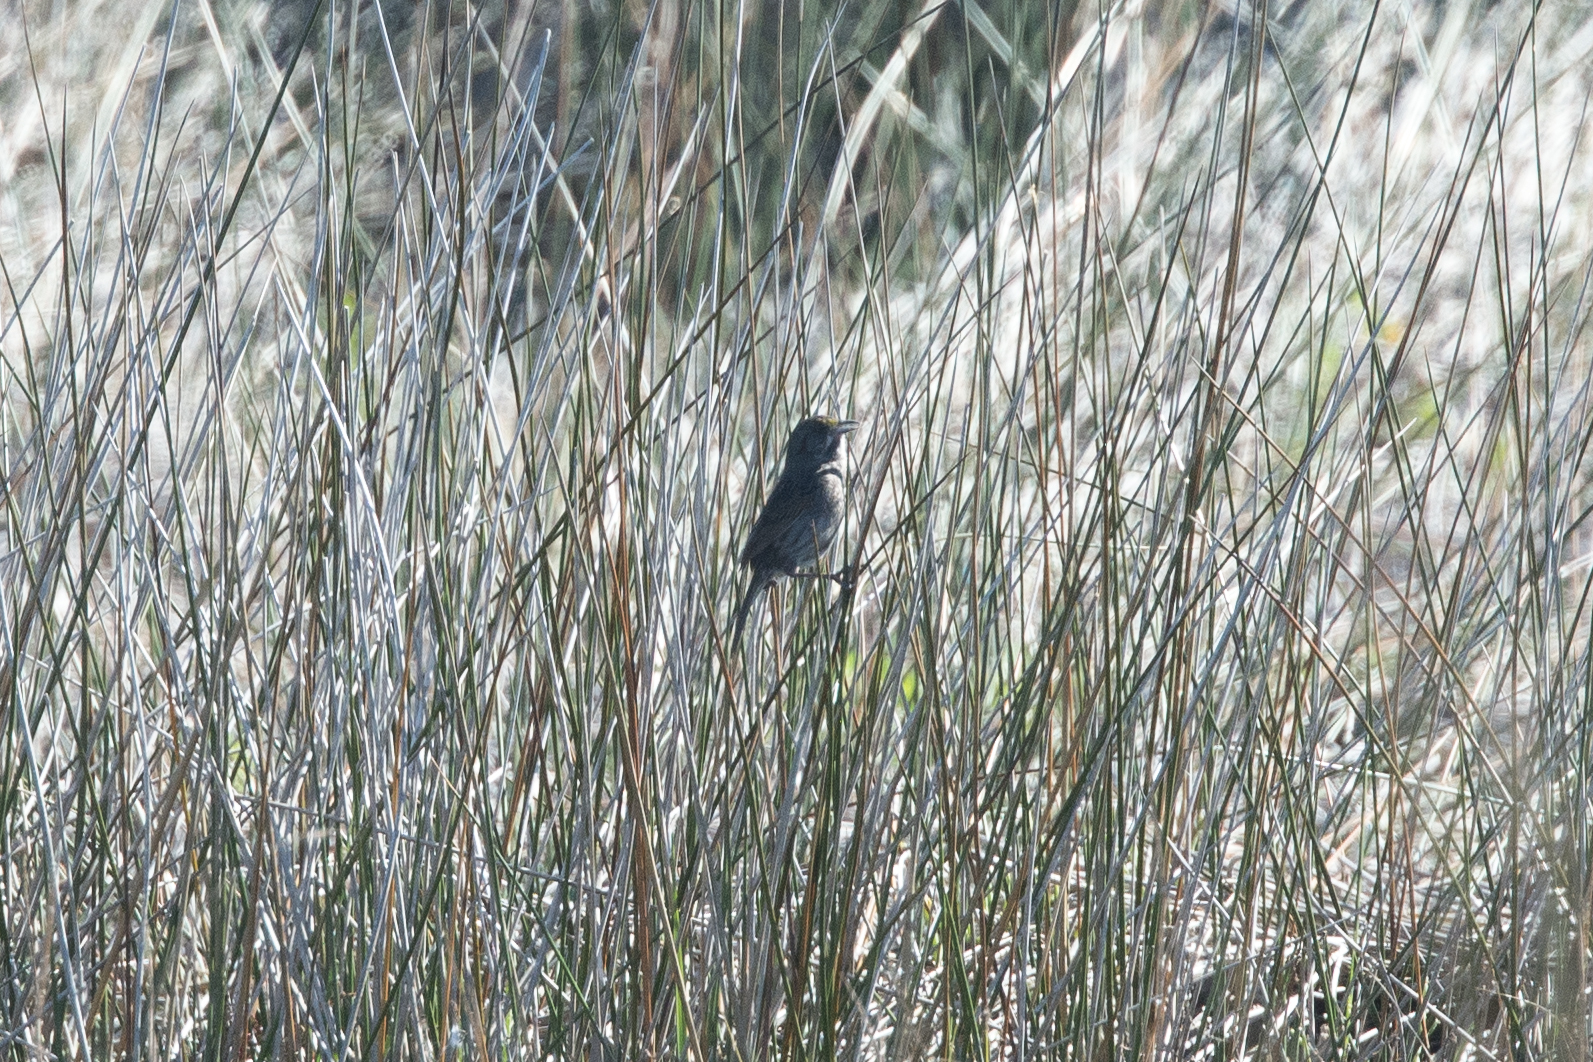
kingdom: Animalia
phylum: Chordata
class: Aves
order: Passeriformes
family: Passerellidae
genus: Ammospiza
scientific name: Ammospiza maritima
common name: Seaside sparrow
